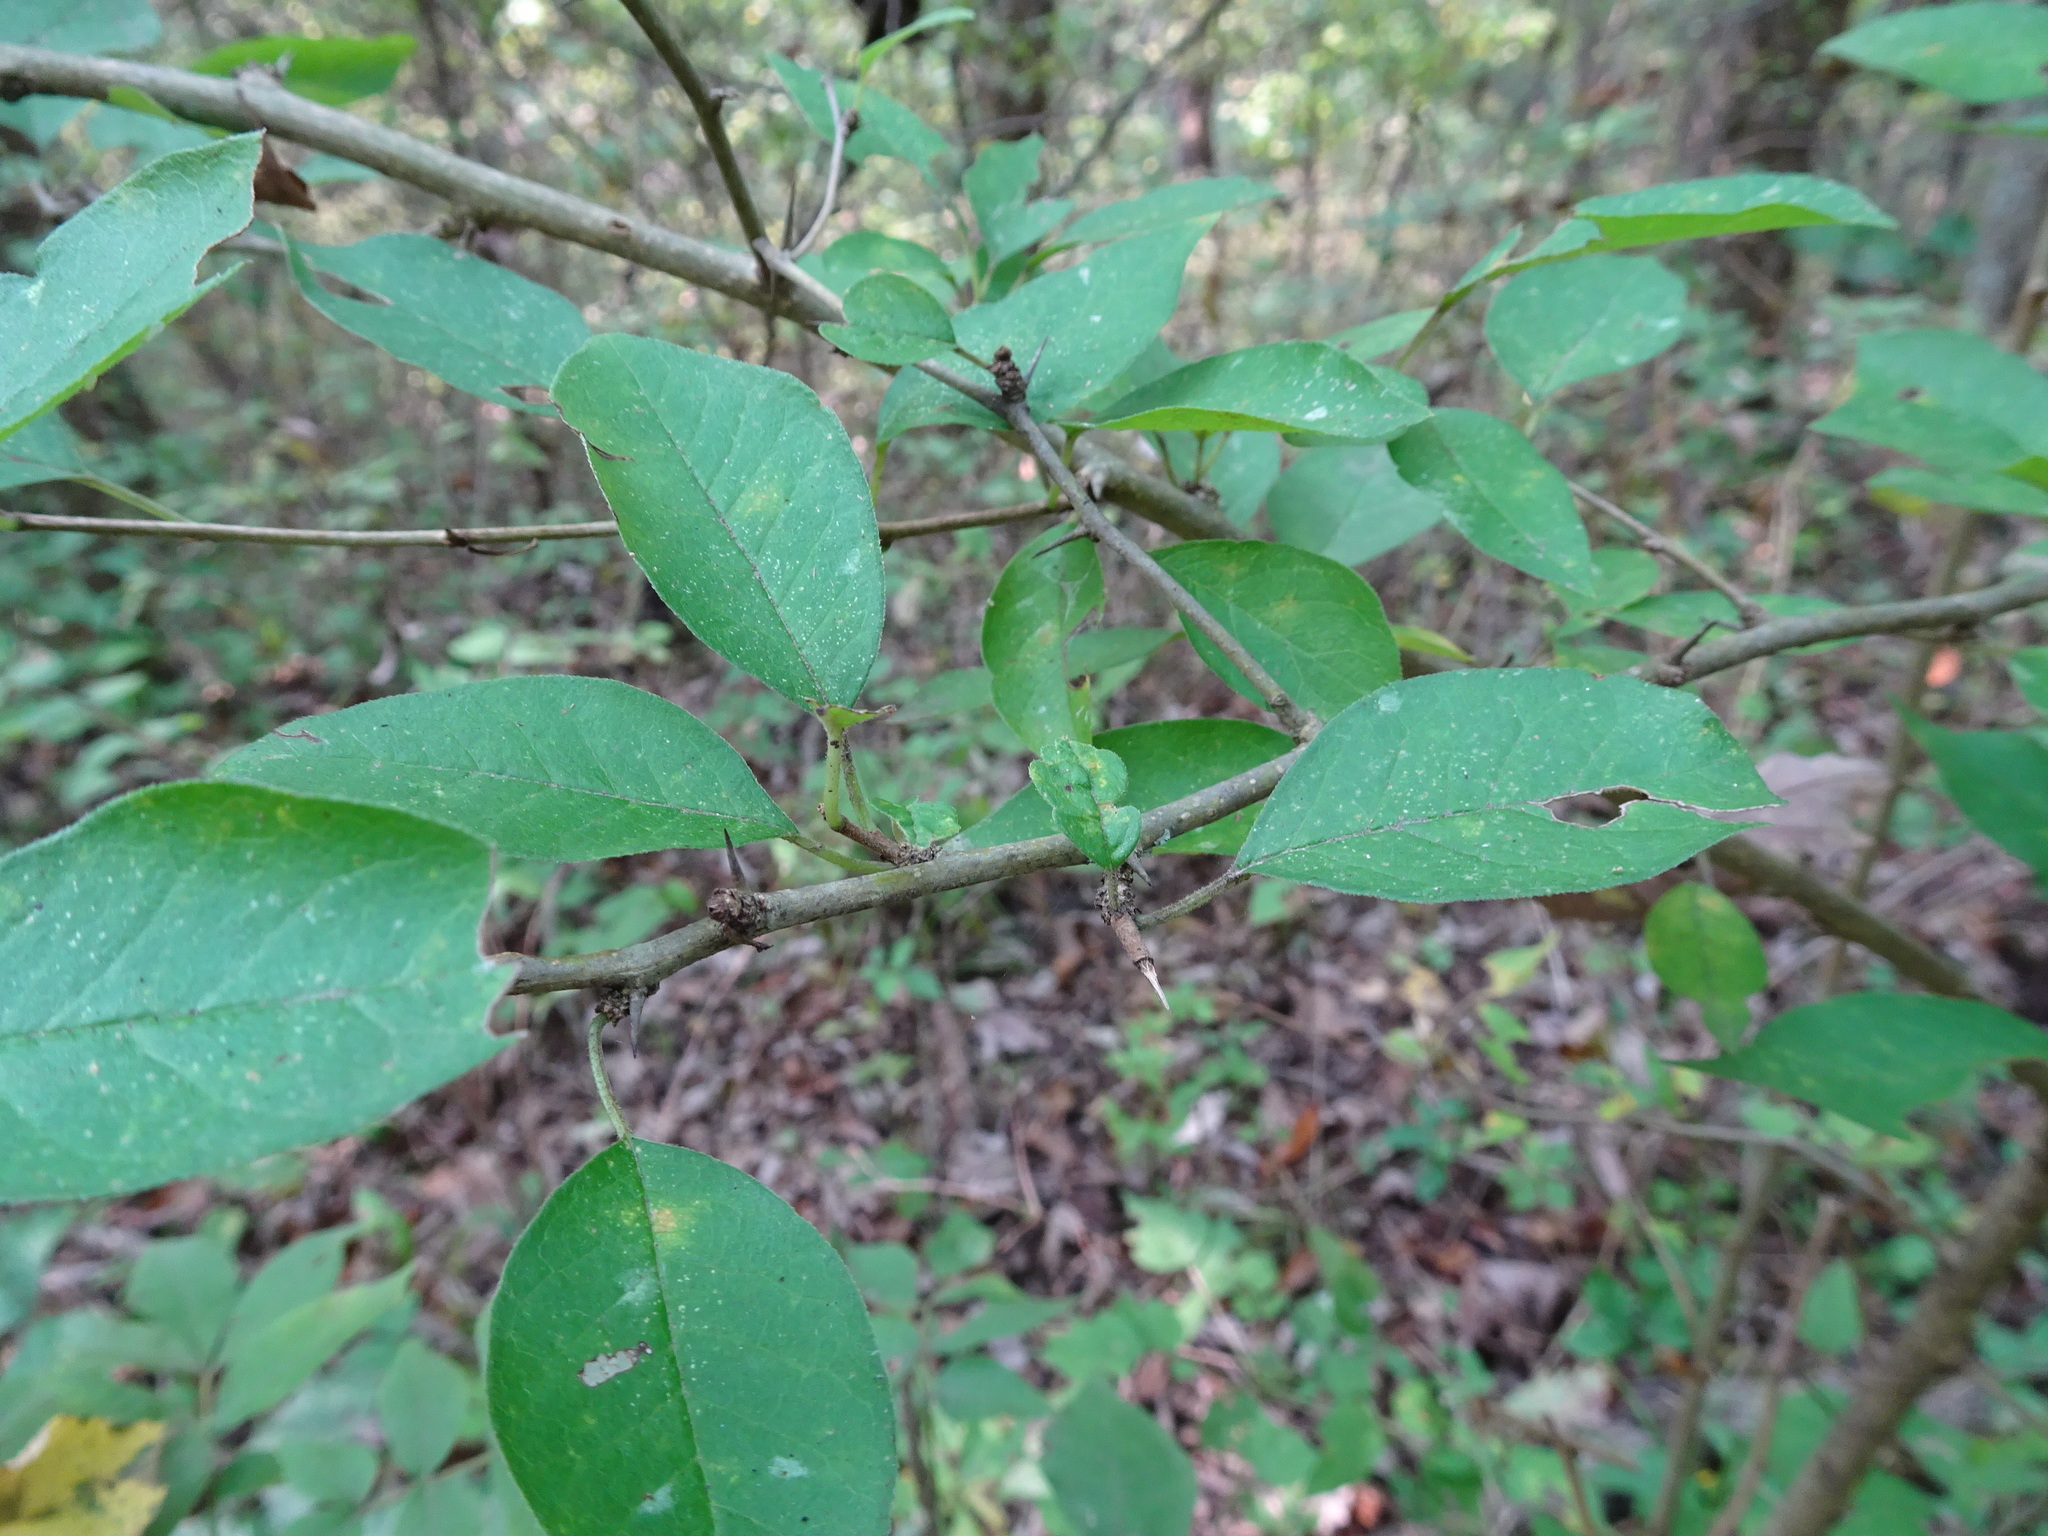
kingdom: Plantae
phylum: Tracheophyta
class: Magnoliopsida
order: Rosales
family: Moraceae
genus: Maclura
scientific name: Maclura pomifera
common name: Osage-orange
